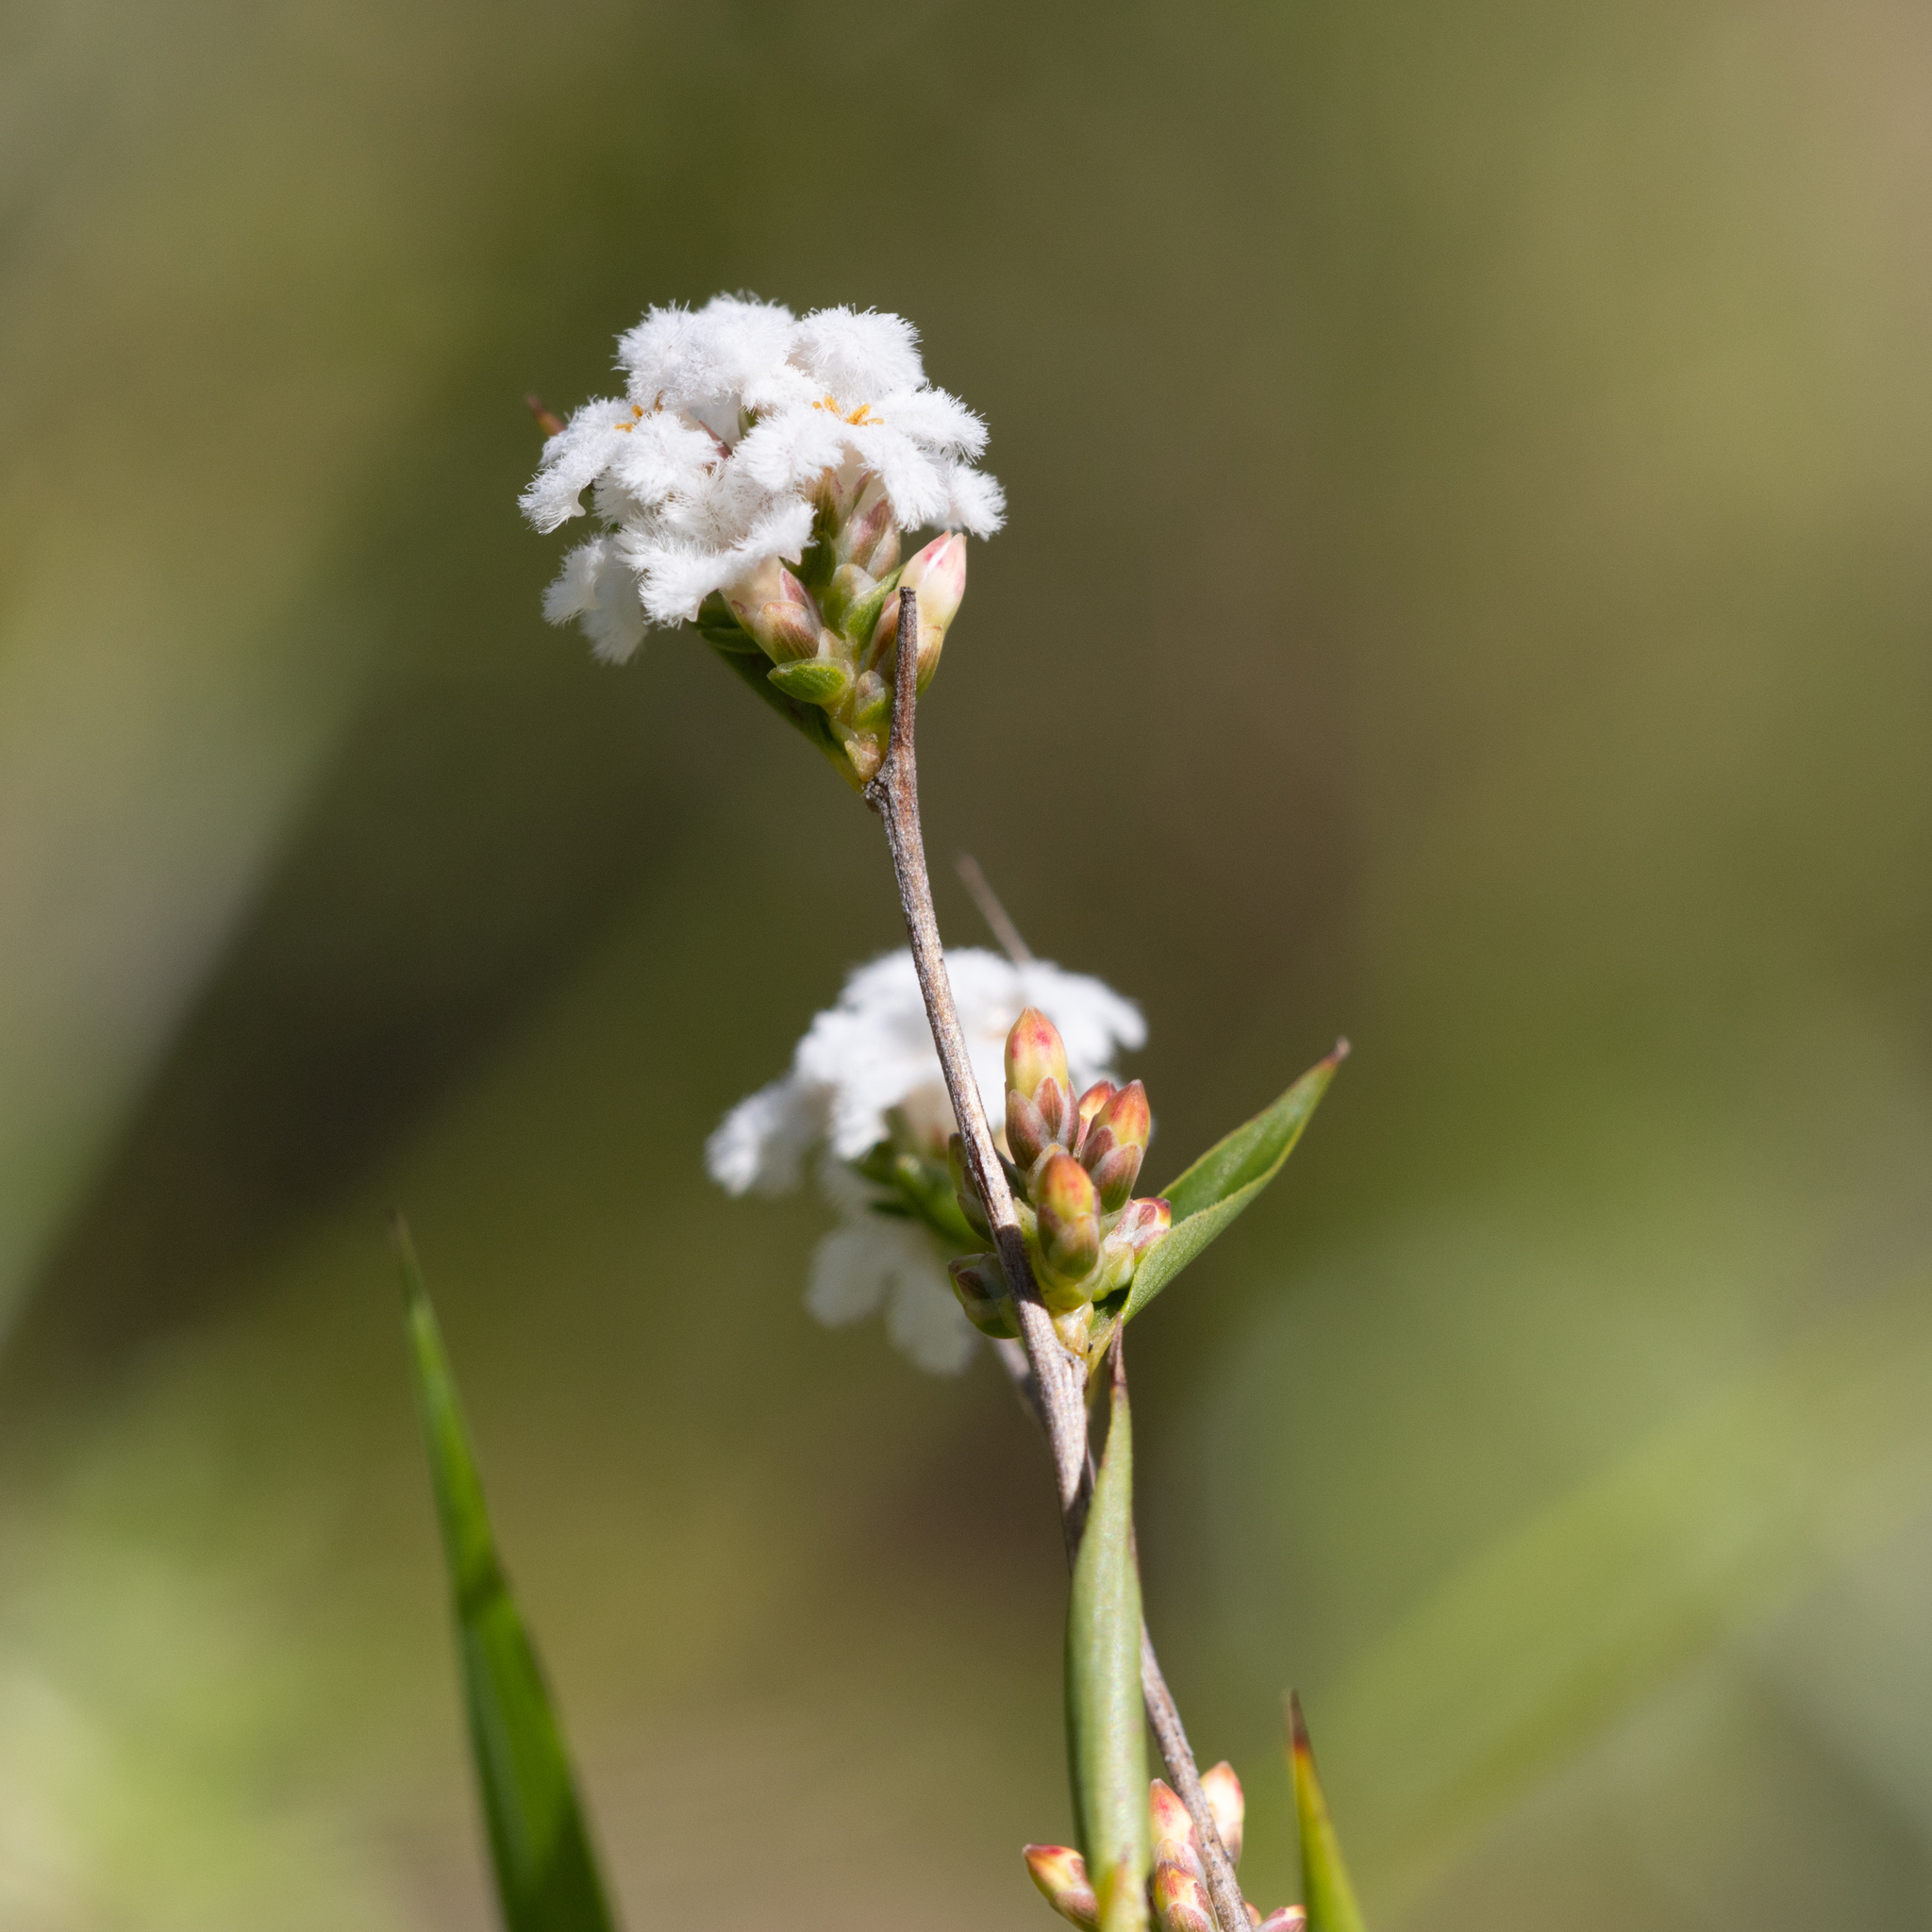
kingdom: Plantae
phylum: Tracheophyta
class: Magnoliopsida
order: Ericales
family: Ericaceae
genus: Leucopogon
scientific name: Leucopogon virgatus
